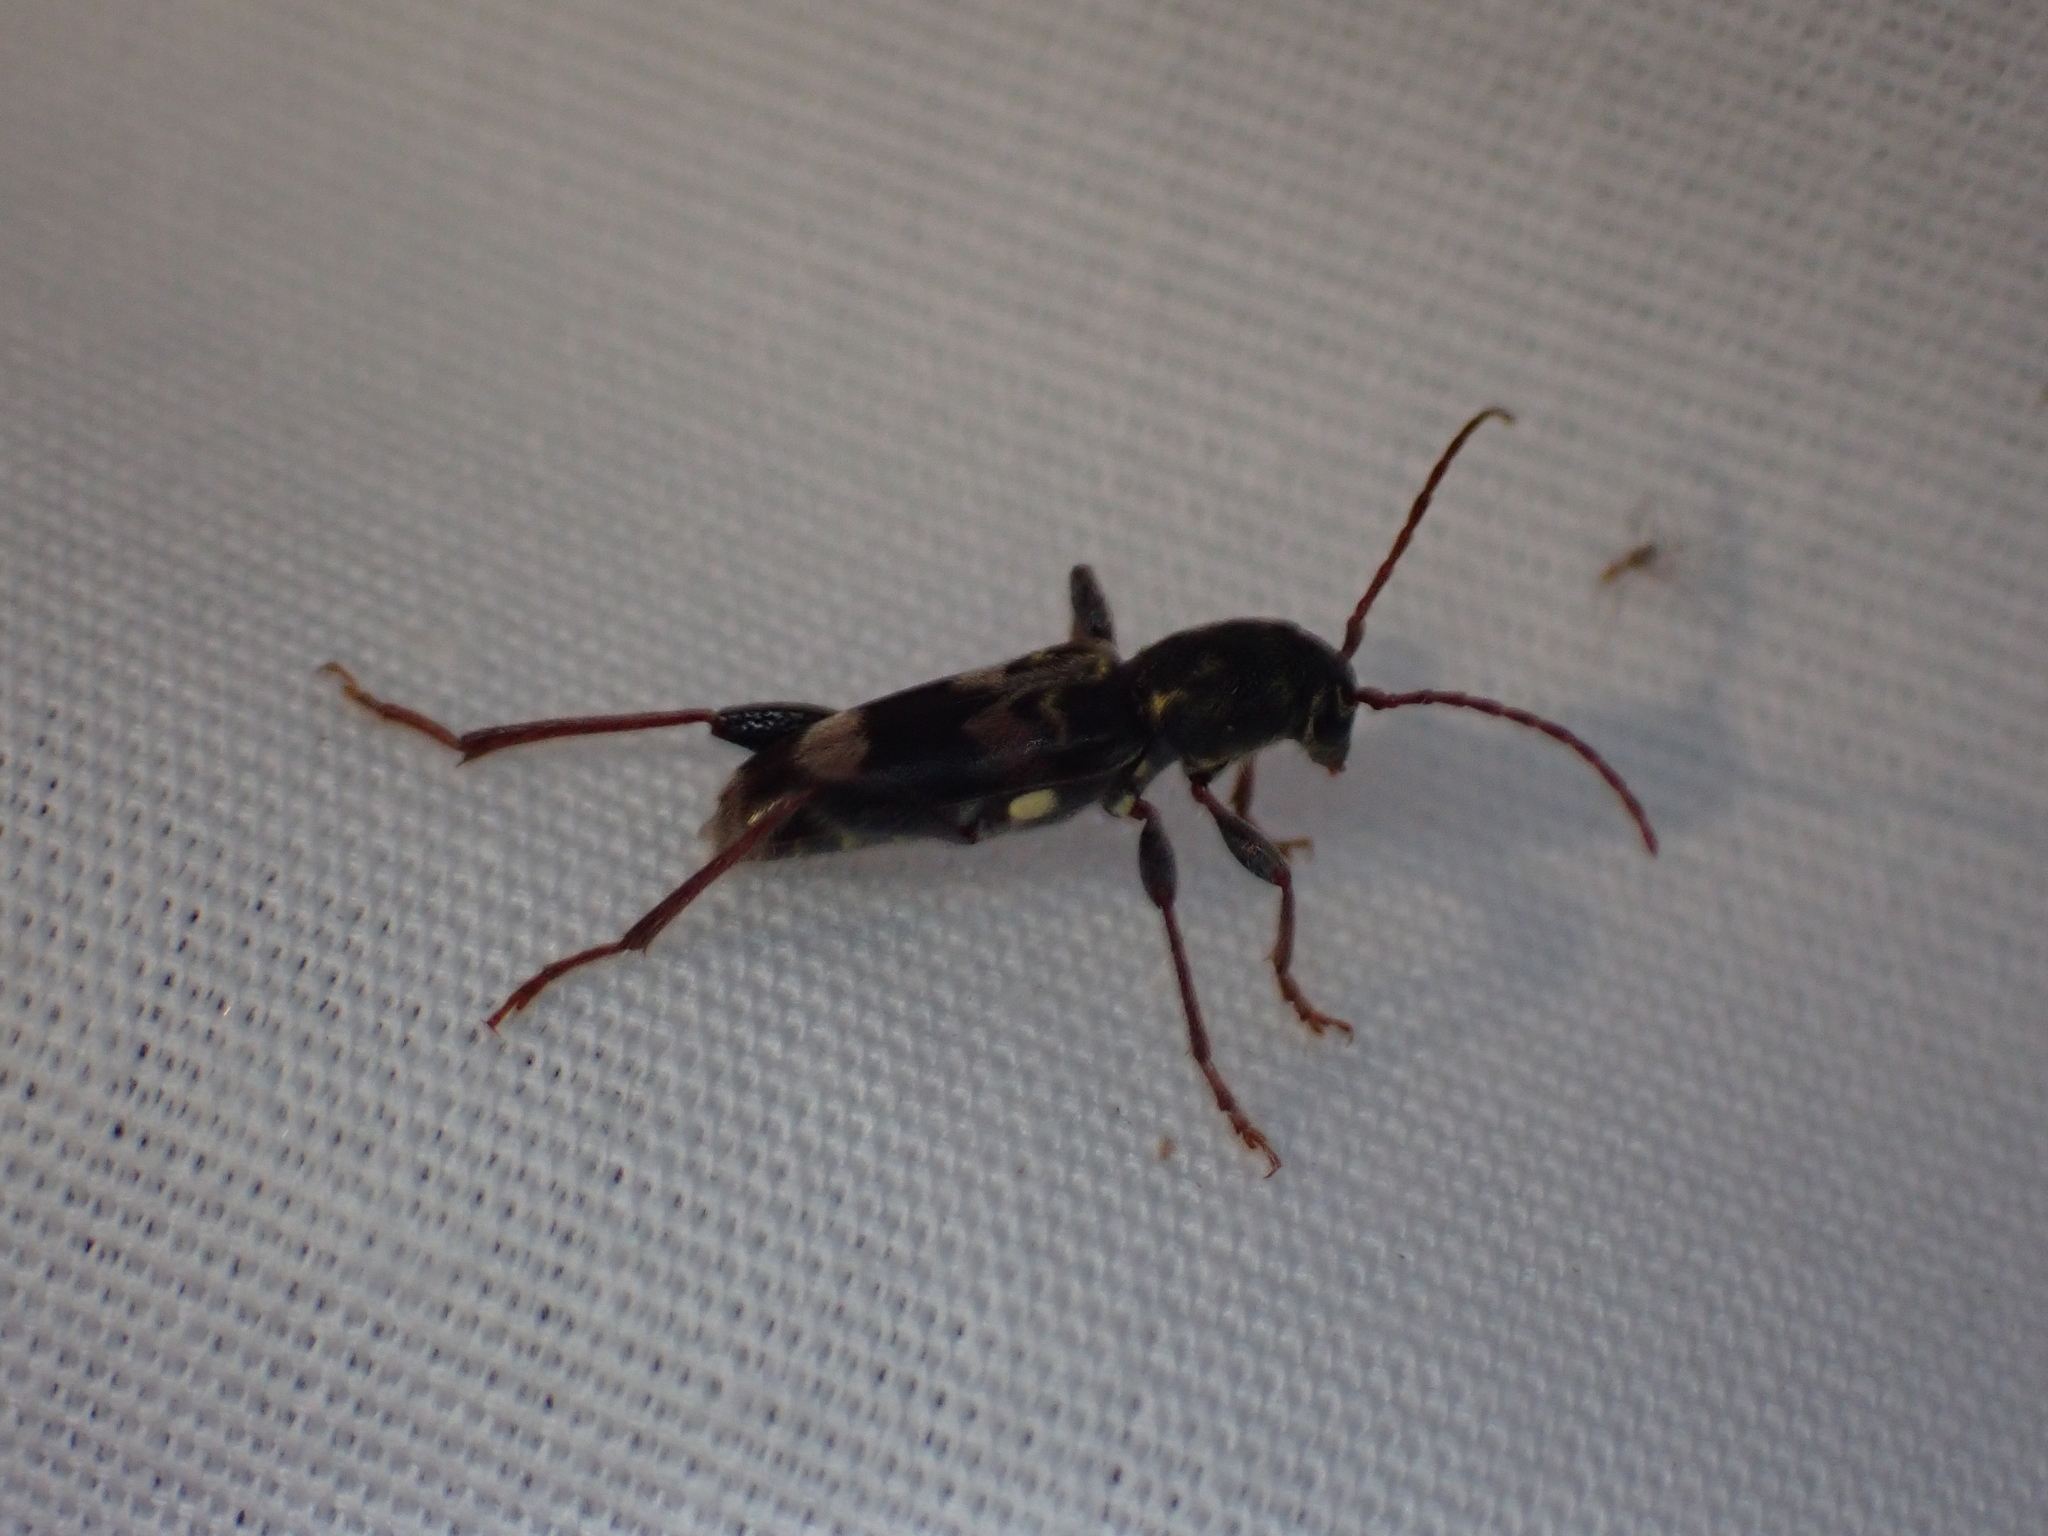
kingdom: Animalia
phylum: Arthropoda
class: Insecta
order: Coleoptera
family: Cerambycidae
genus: Xylotrechus
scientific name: Xylotrechus colonus
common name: Long-horned beetle
